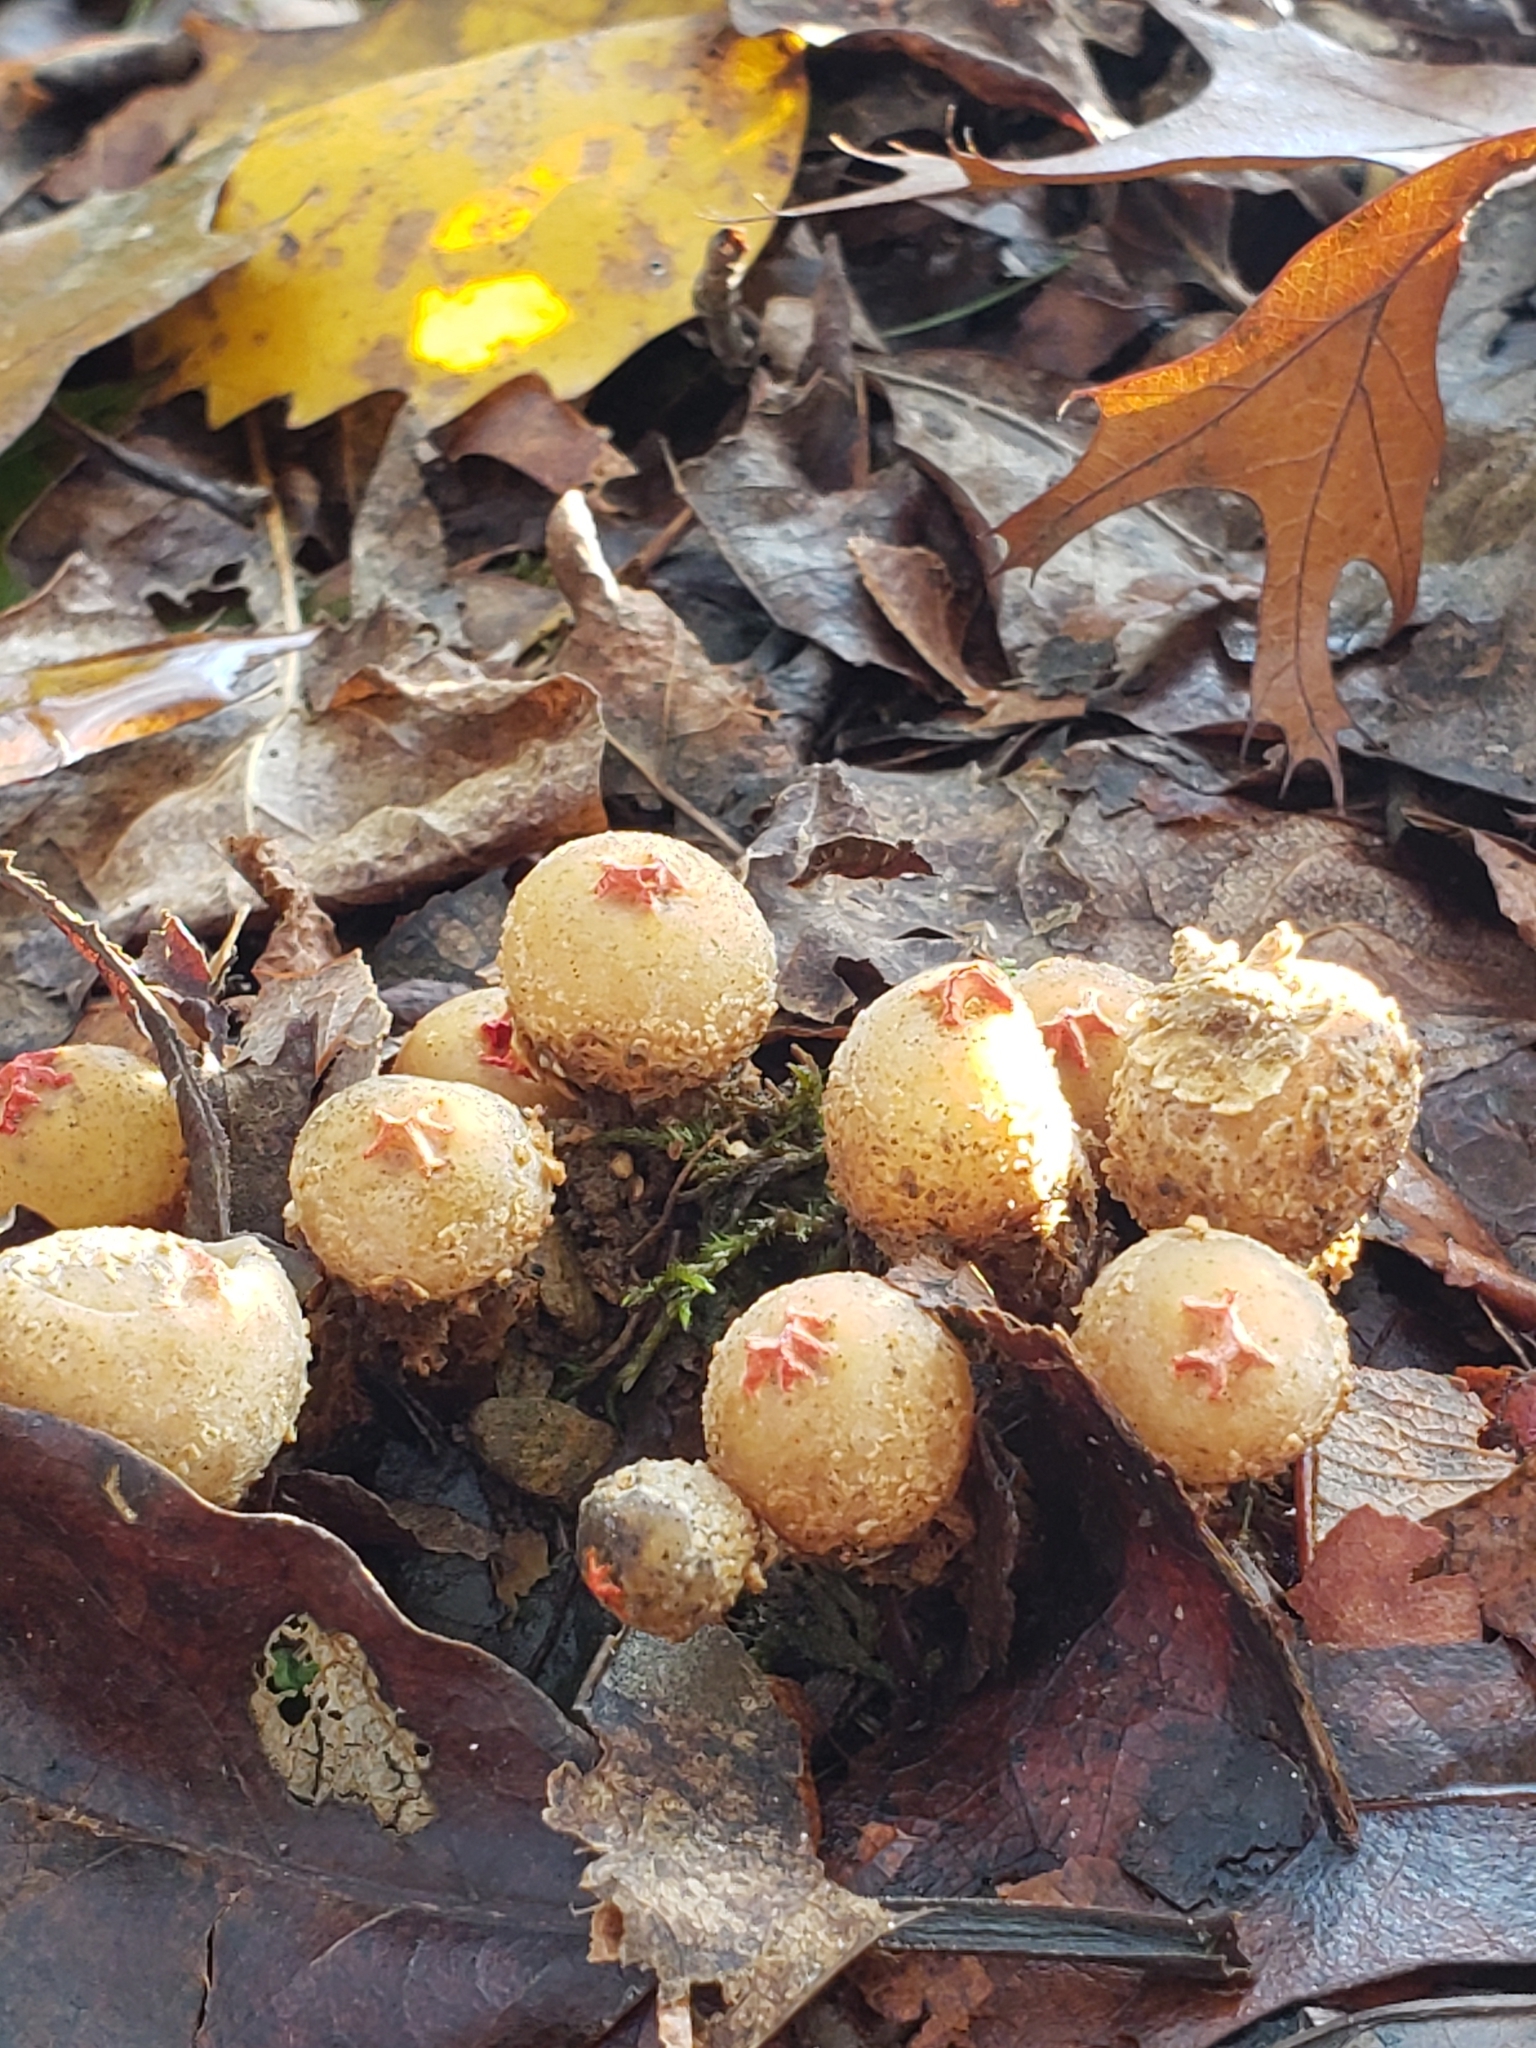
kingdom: Fungi
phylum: Basidiomycota
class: Agaricomycetes
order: Boletales
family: Calostomataceae
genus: Calostoma
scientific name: Calostoma ravenelii
